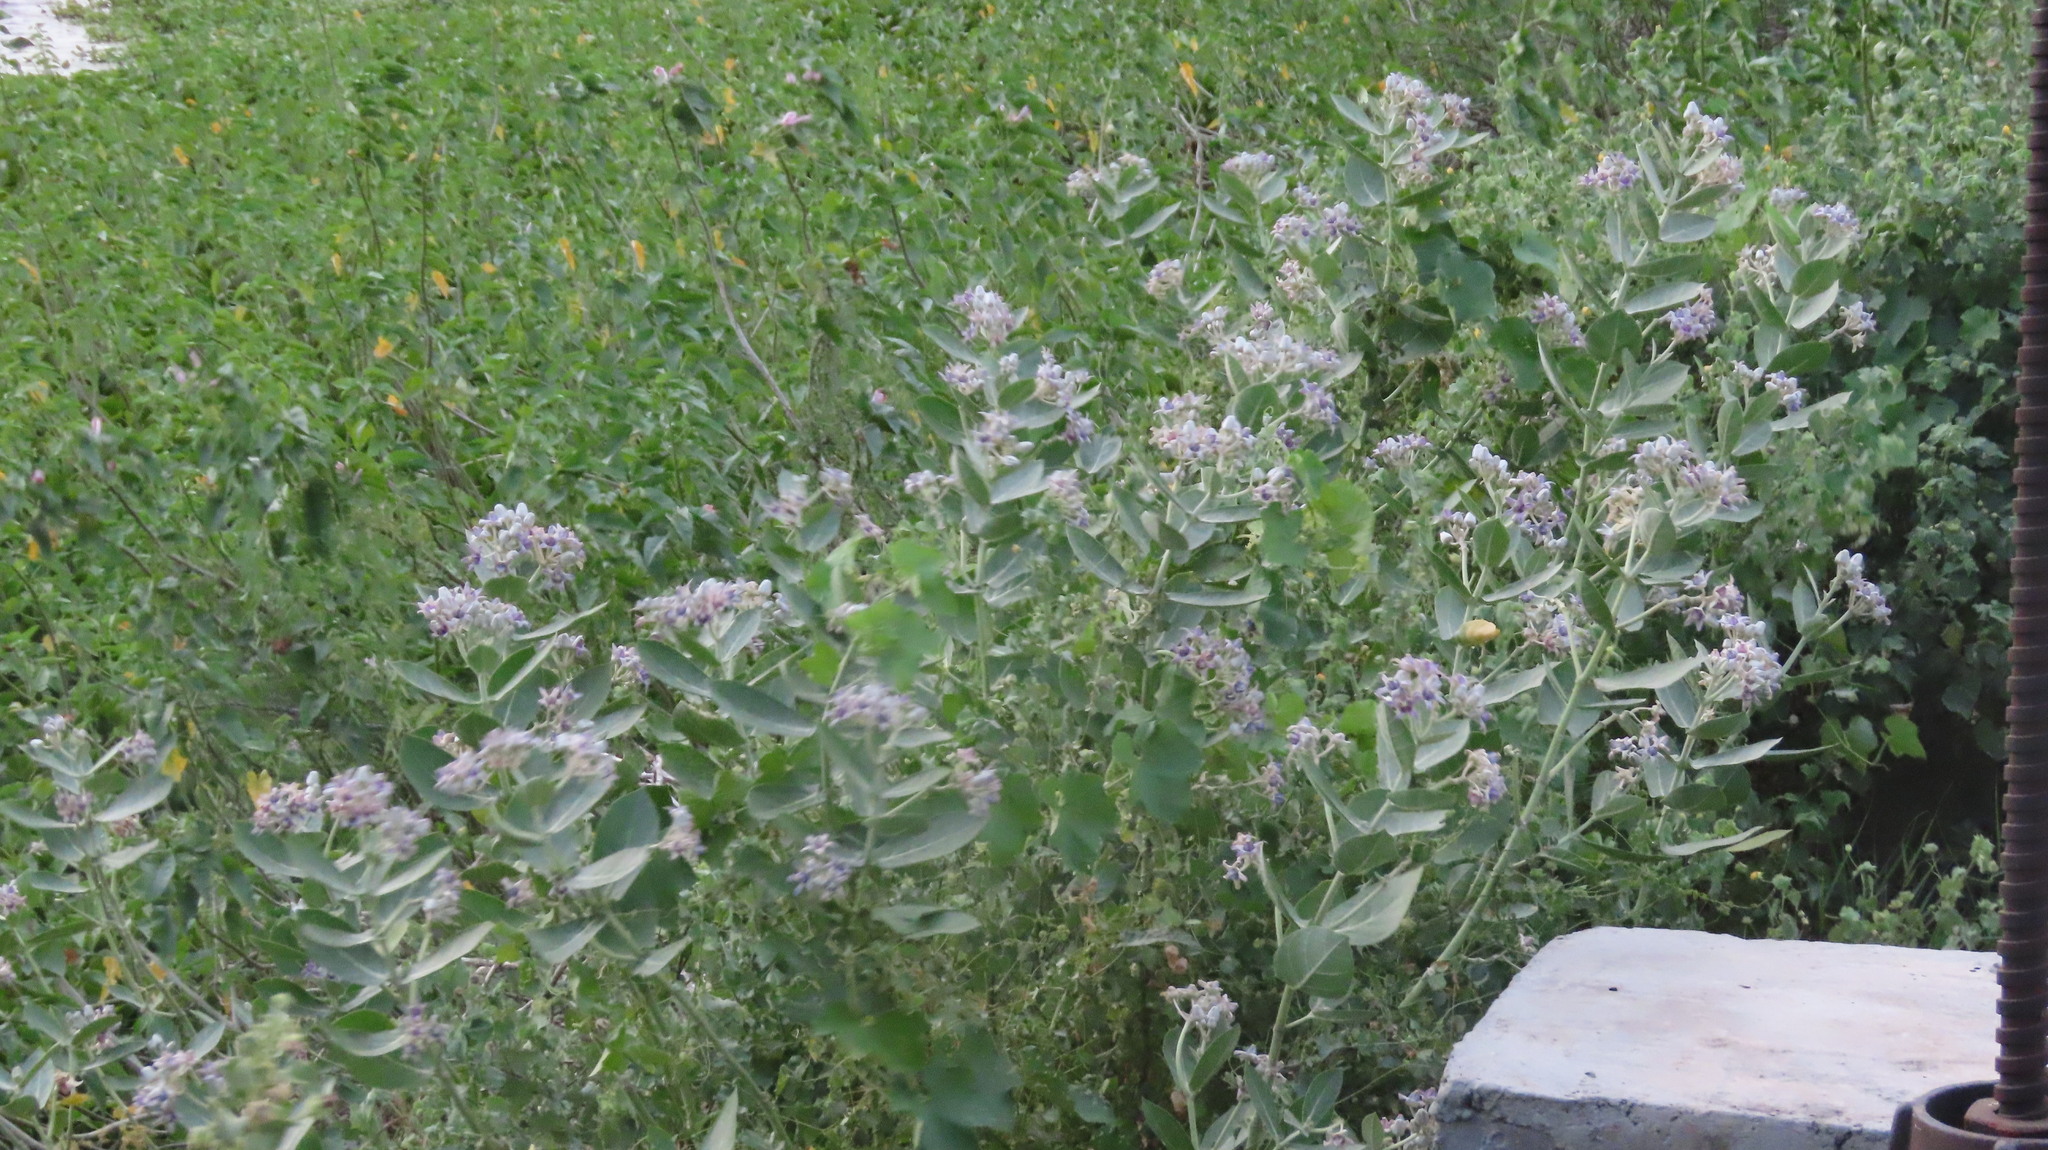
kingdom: Plantae
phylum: Tracheophyta
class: Magnoliopsida
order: Gentianales
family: Apocynaceae
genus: Calotropis
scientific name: Calotropis gigantea
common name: Crown flower
